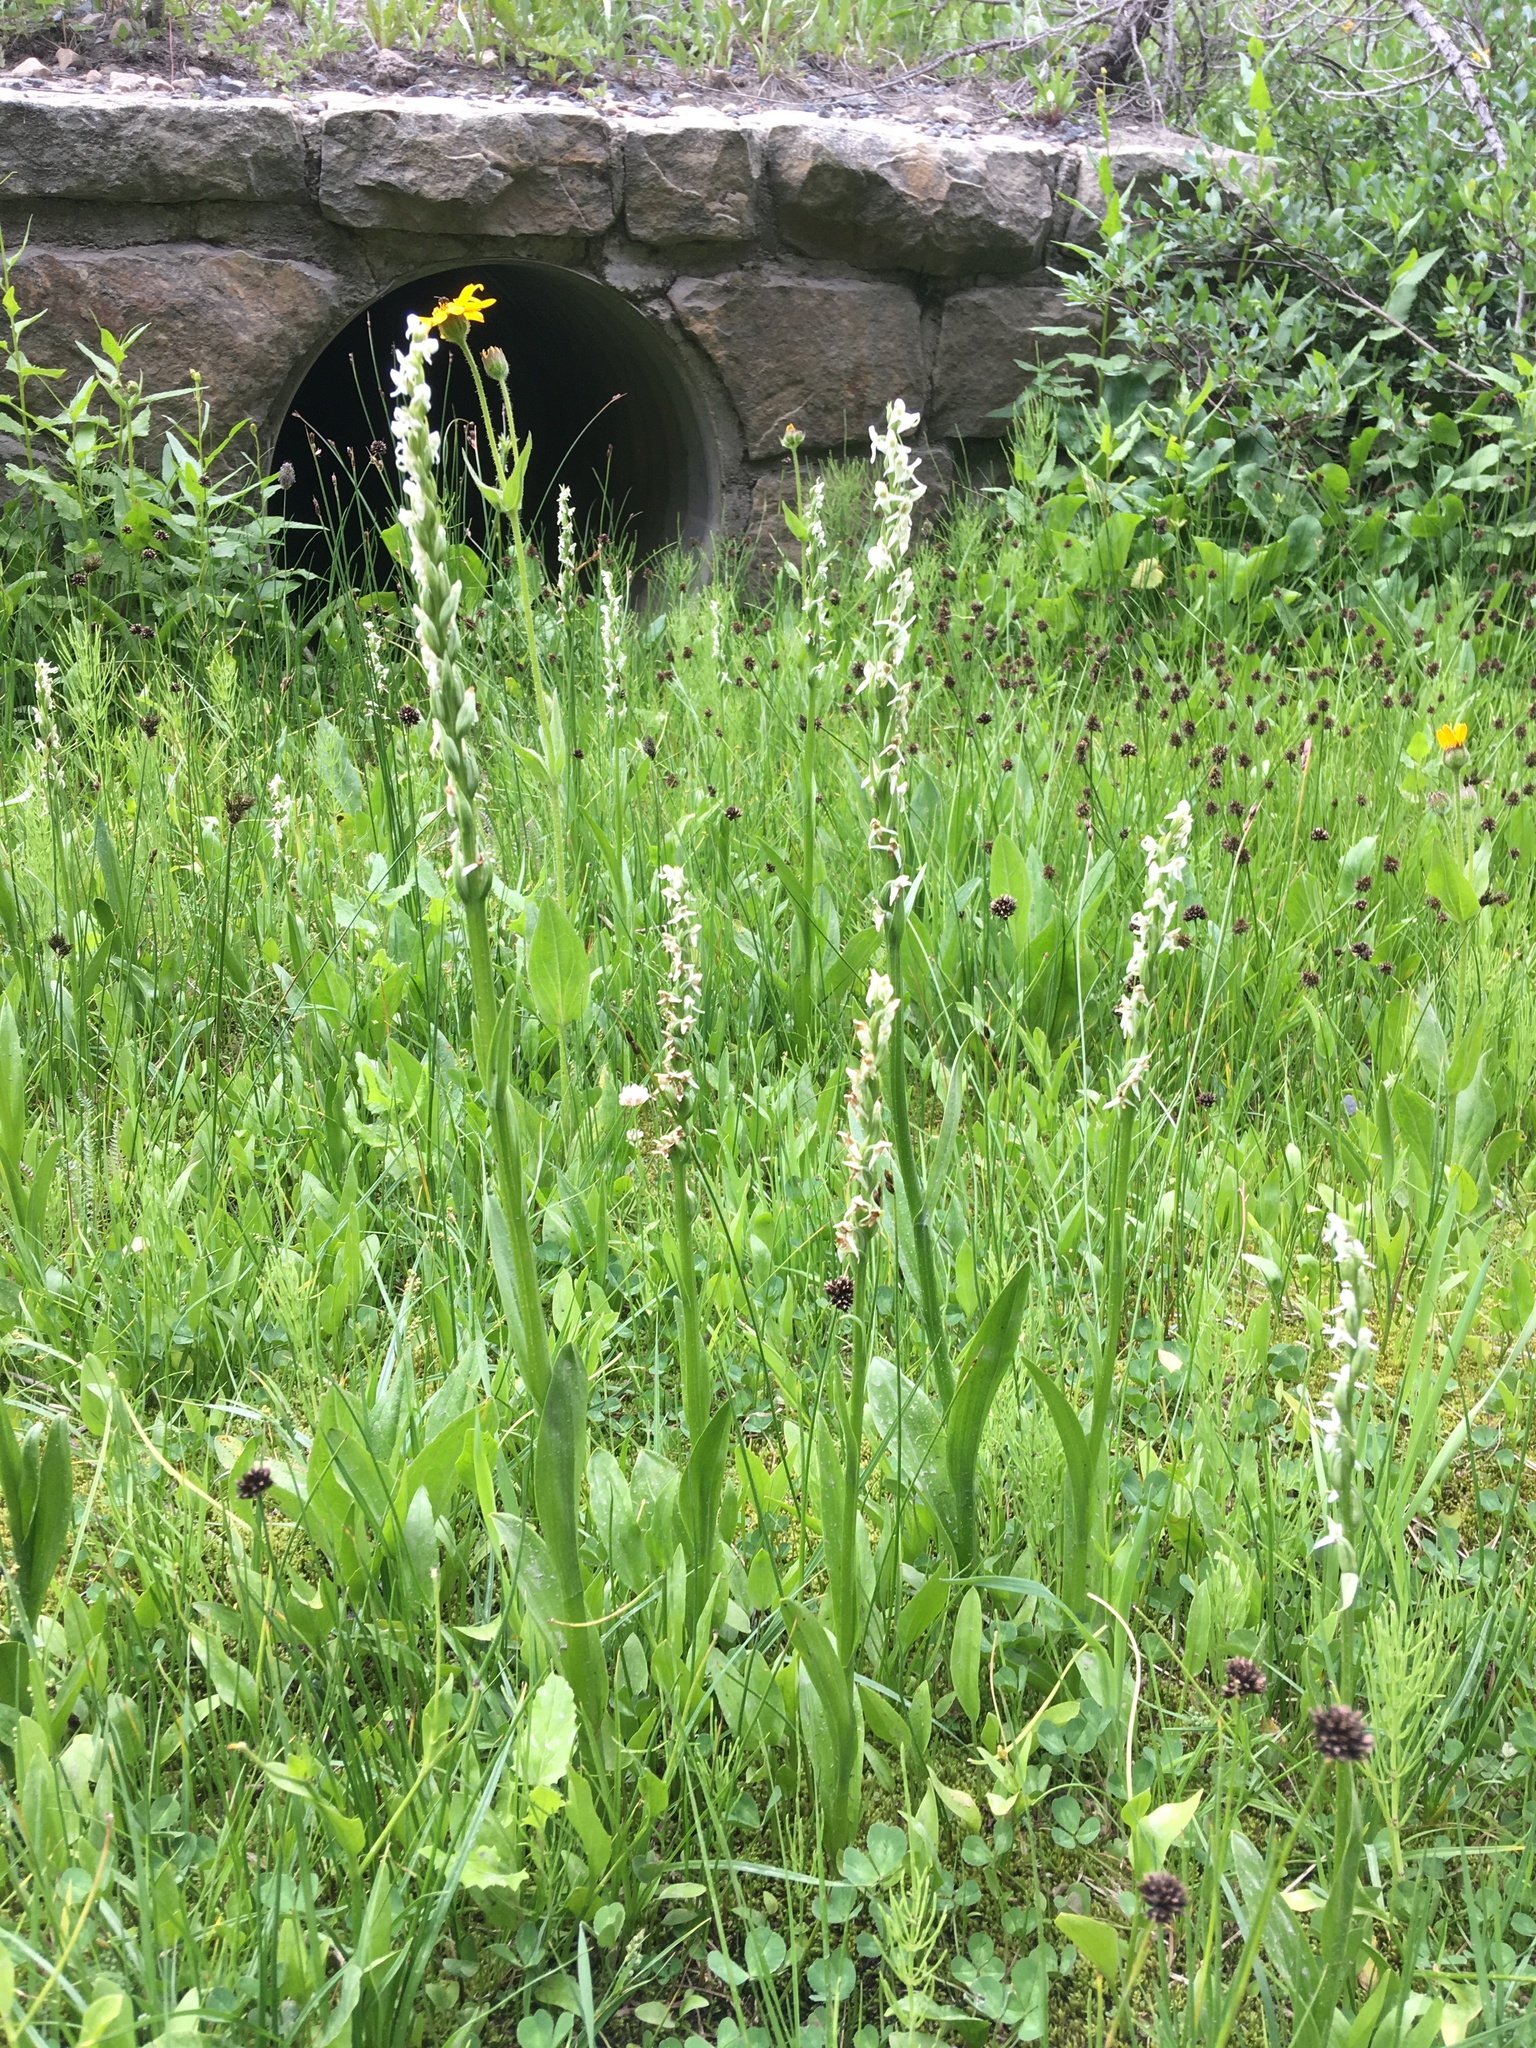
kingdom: Plantae
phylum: Tracheophyta
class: Liliopsida
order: Asparagales
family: Orchidaceae
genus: Platanthera
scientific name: Platanthera dilatata
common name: Bog candles
